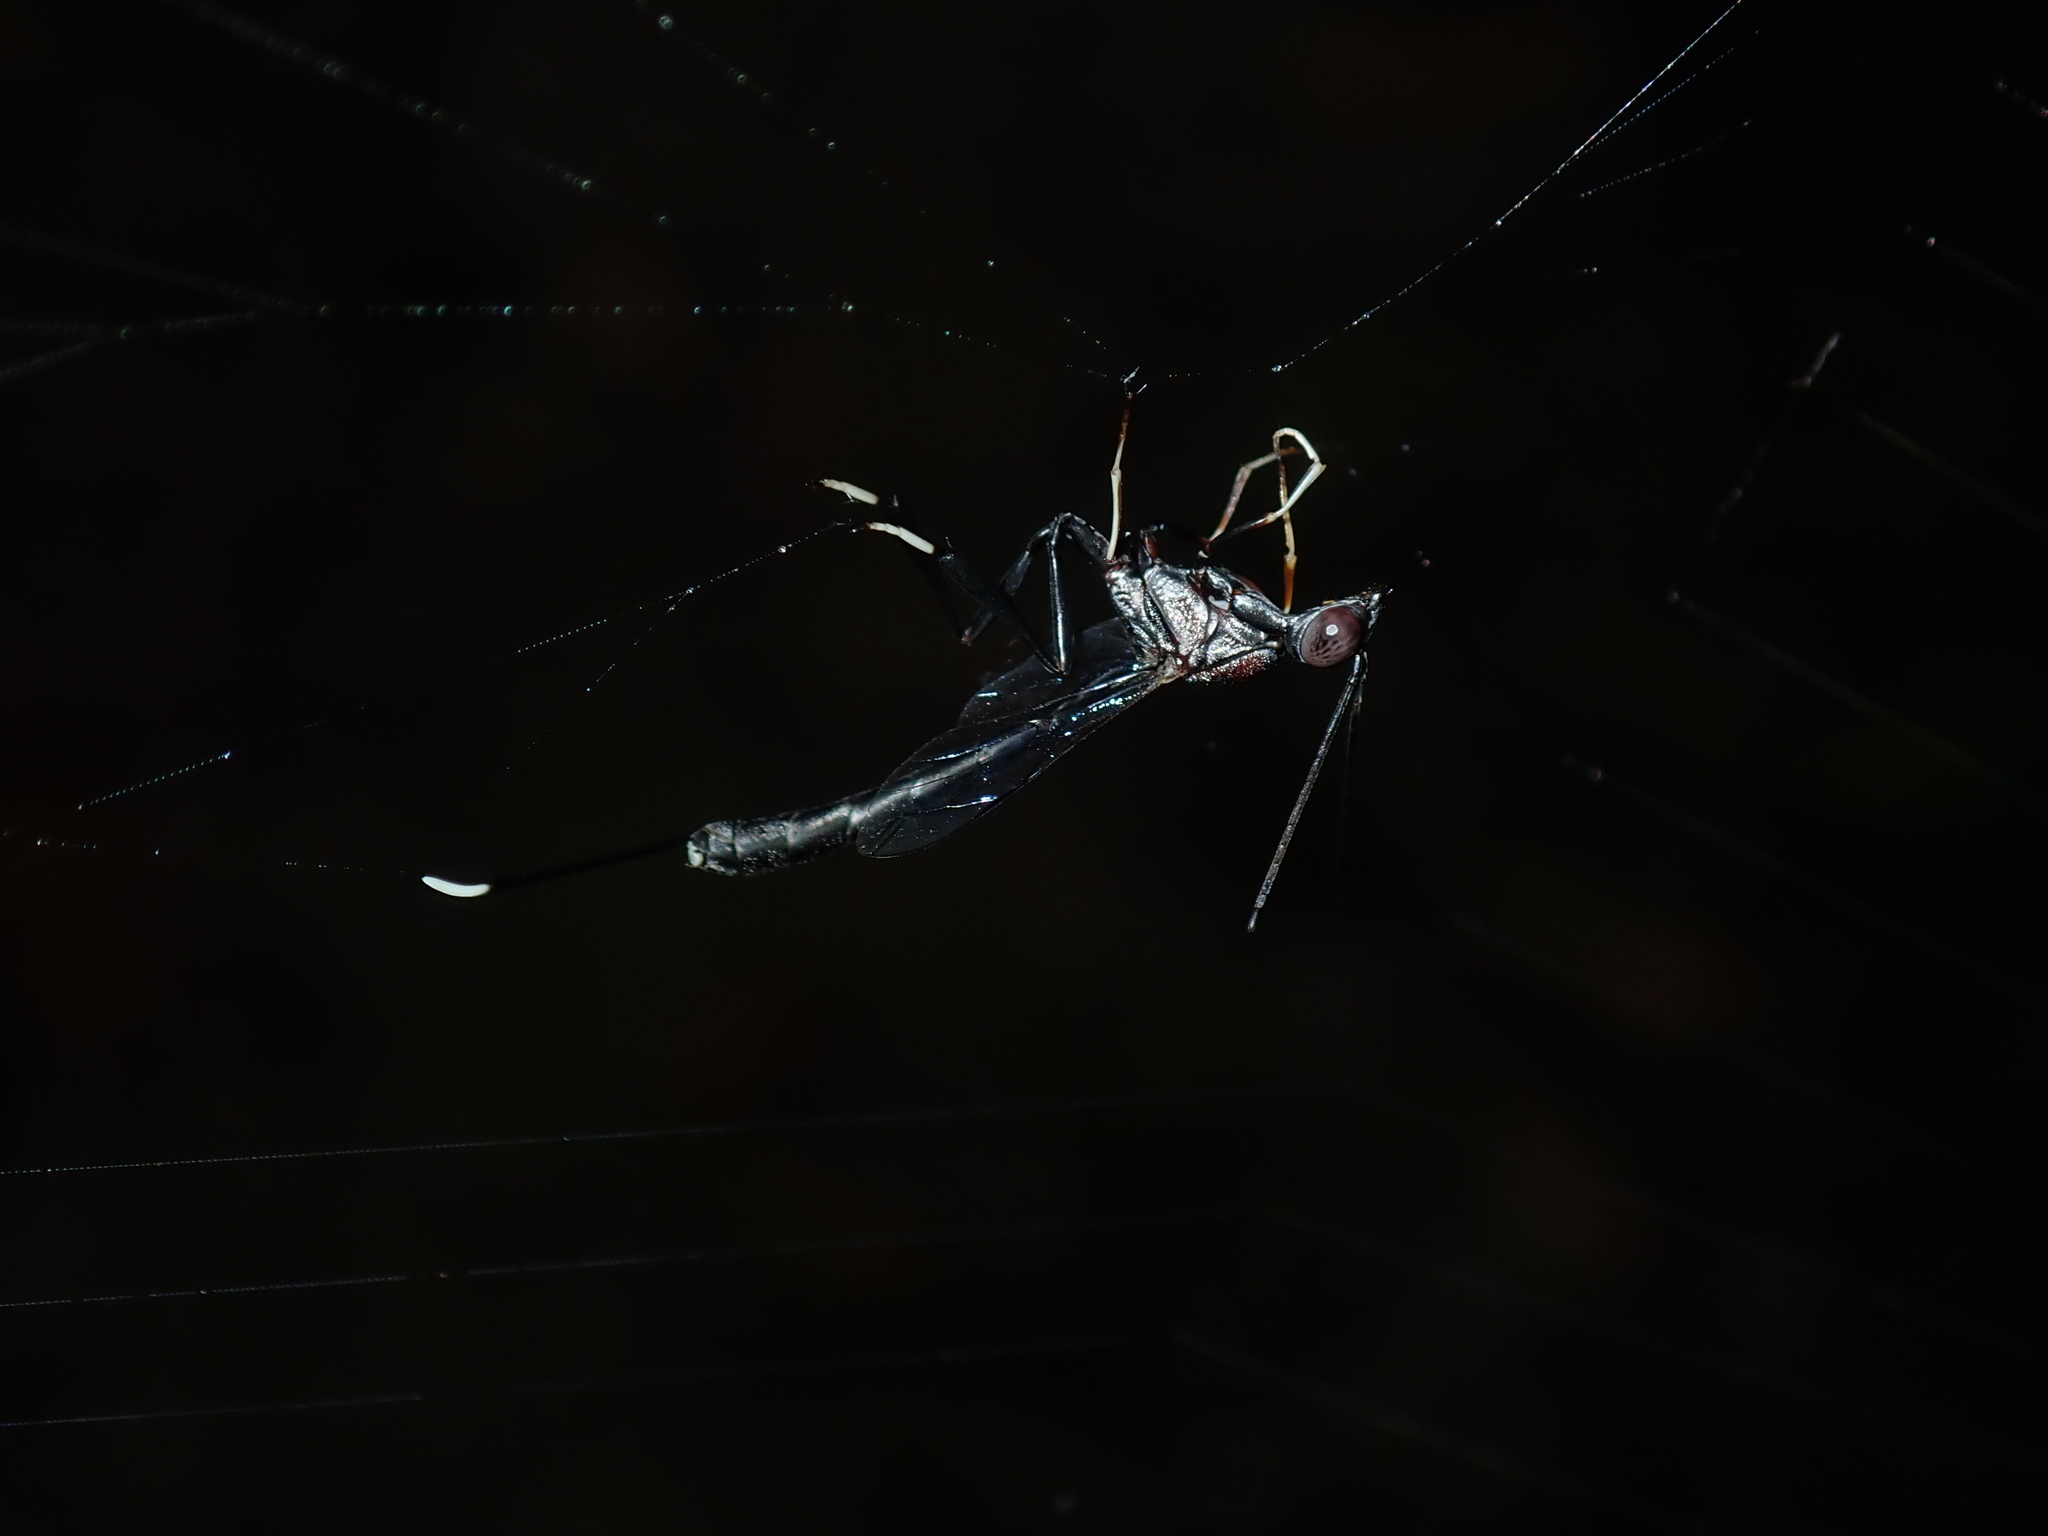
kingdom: Animalia
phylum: Arthropoda
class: Insecta
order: Hymenoptera
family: Gasteruptiidae
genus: Gasteruption
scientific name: Gasteruption
